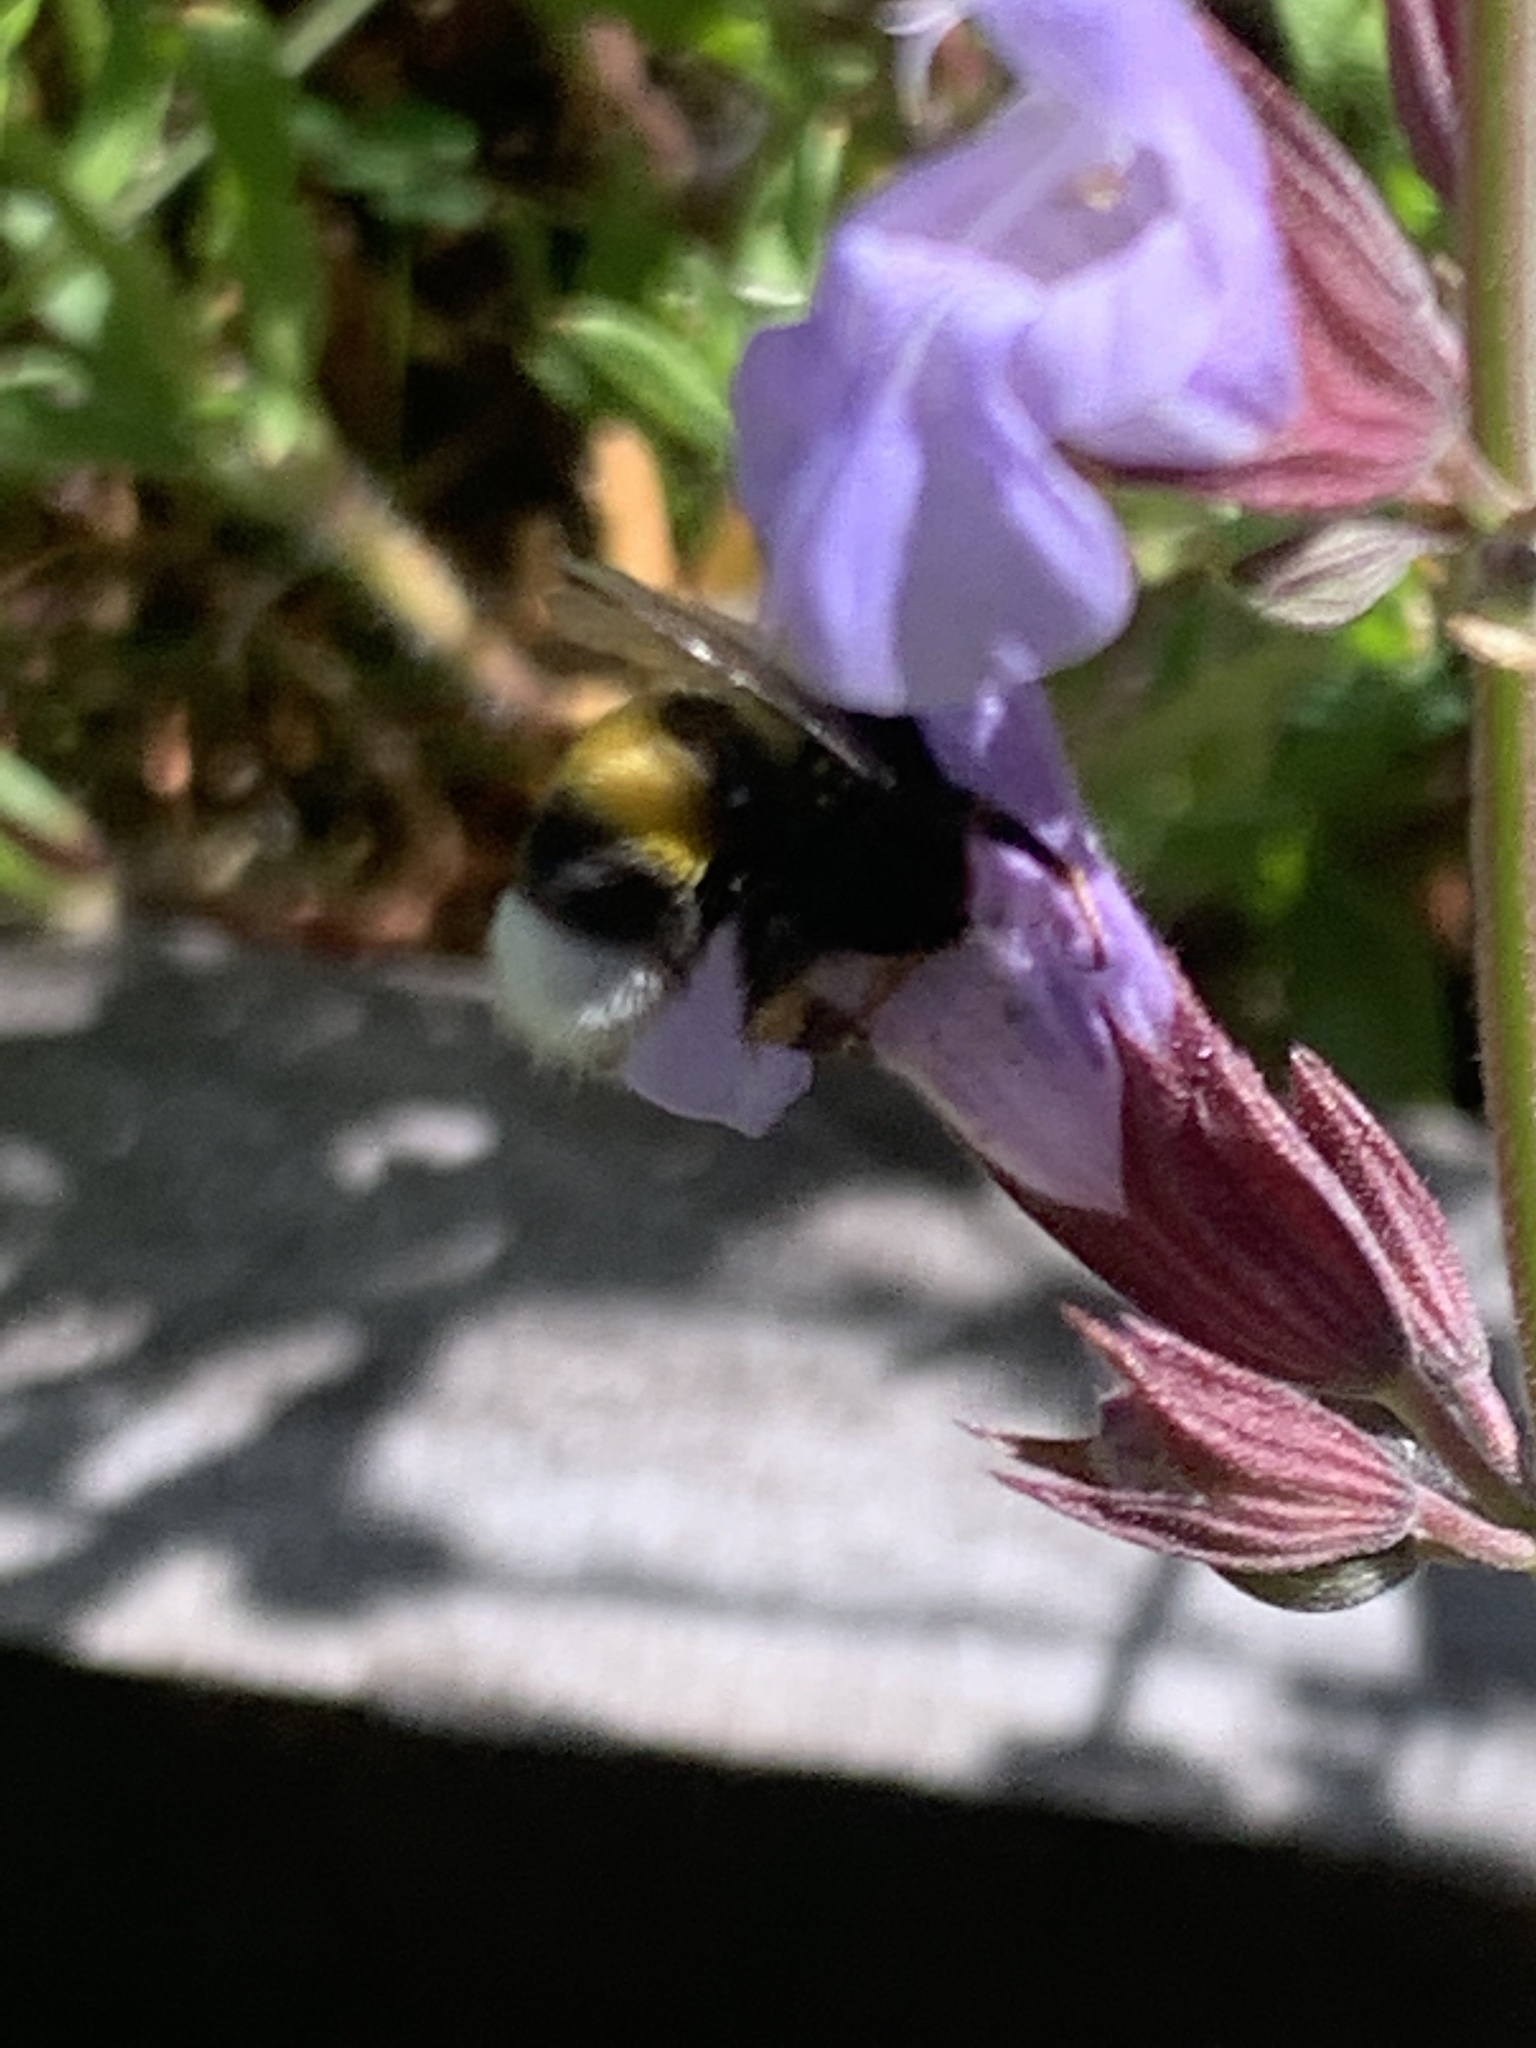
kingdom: Animalia
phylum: Arthropoda
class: Insecta
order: Hymenoptera
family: Apidae
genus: Bombus
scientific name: Bombus terrestris
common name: Buff-tailed bumblebee
